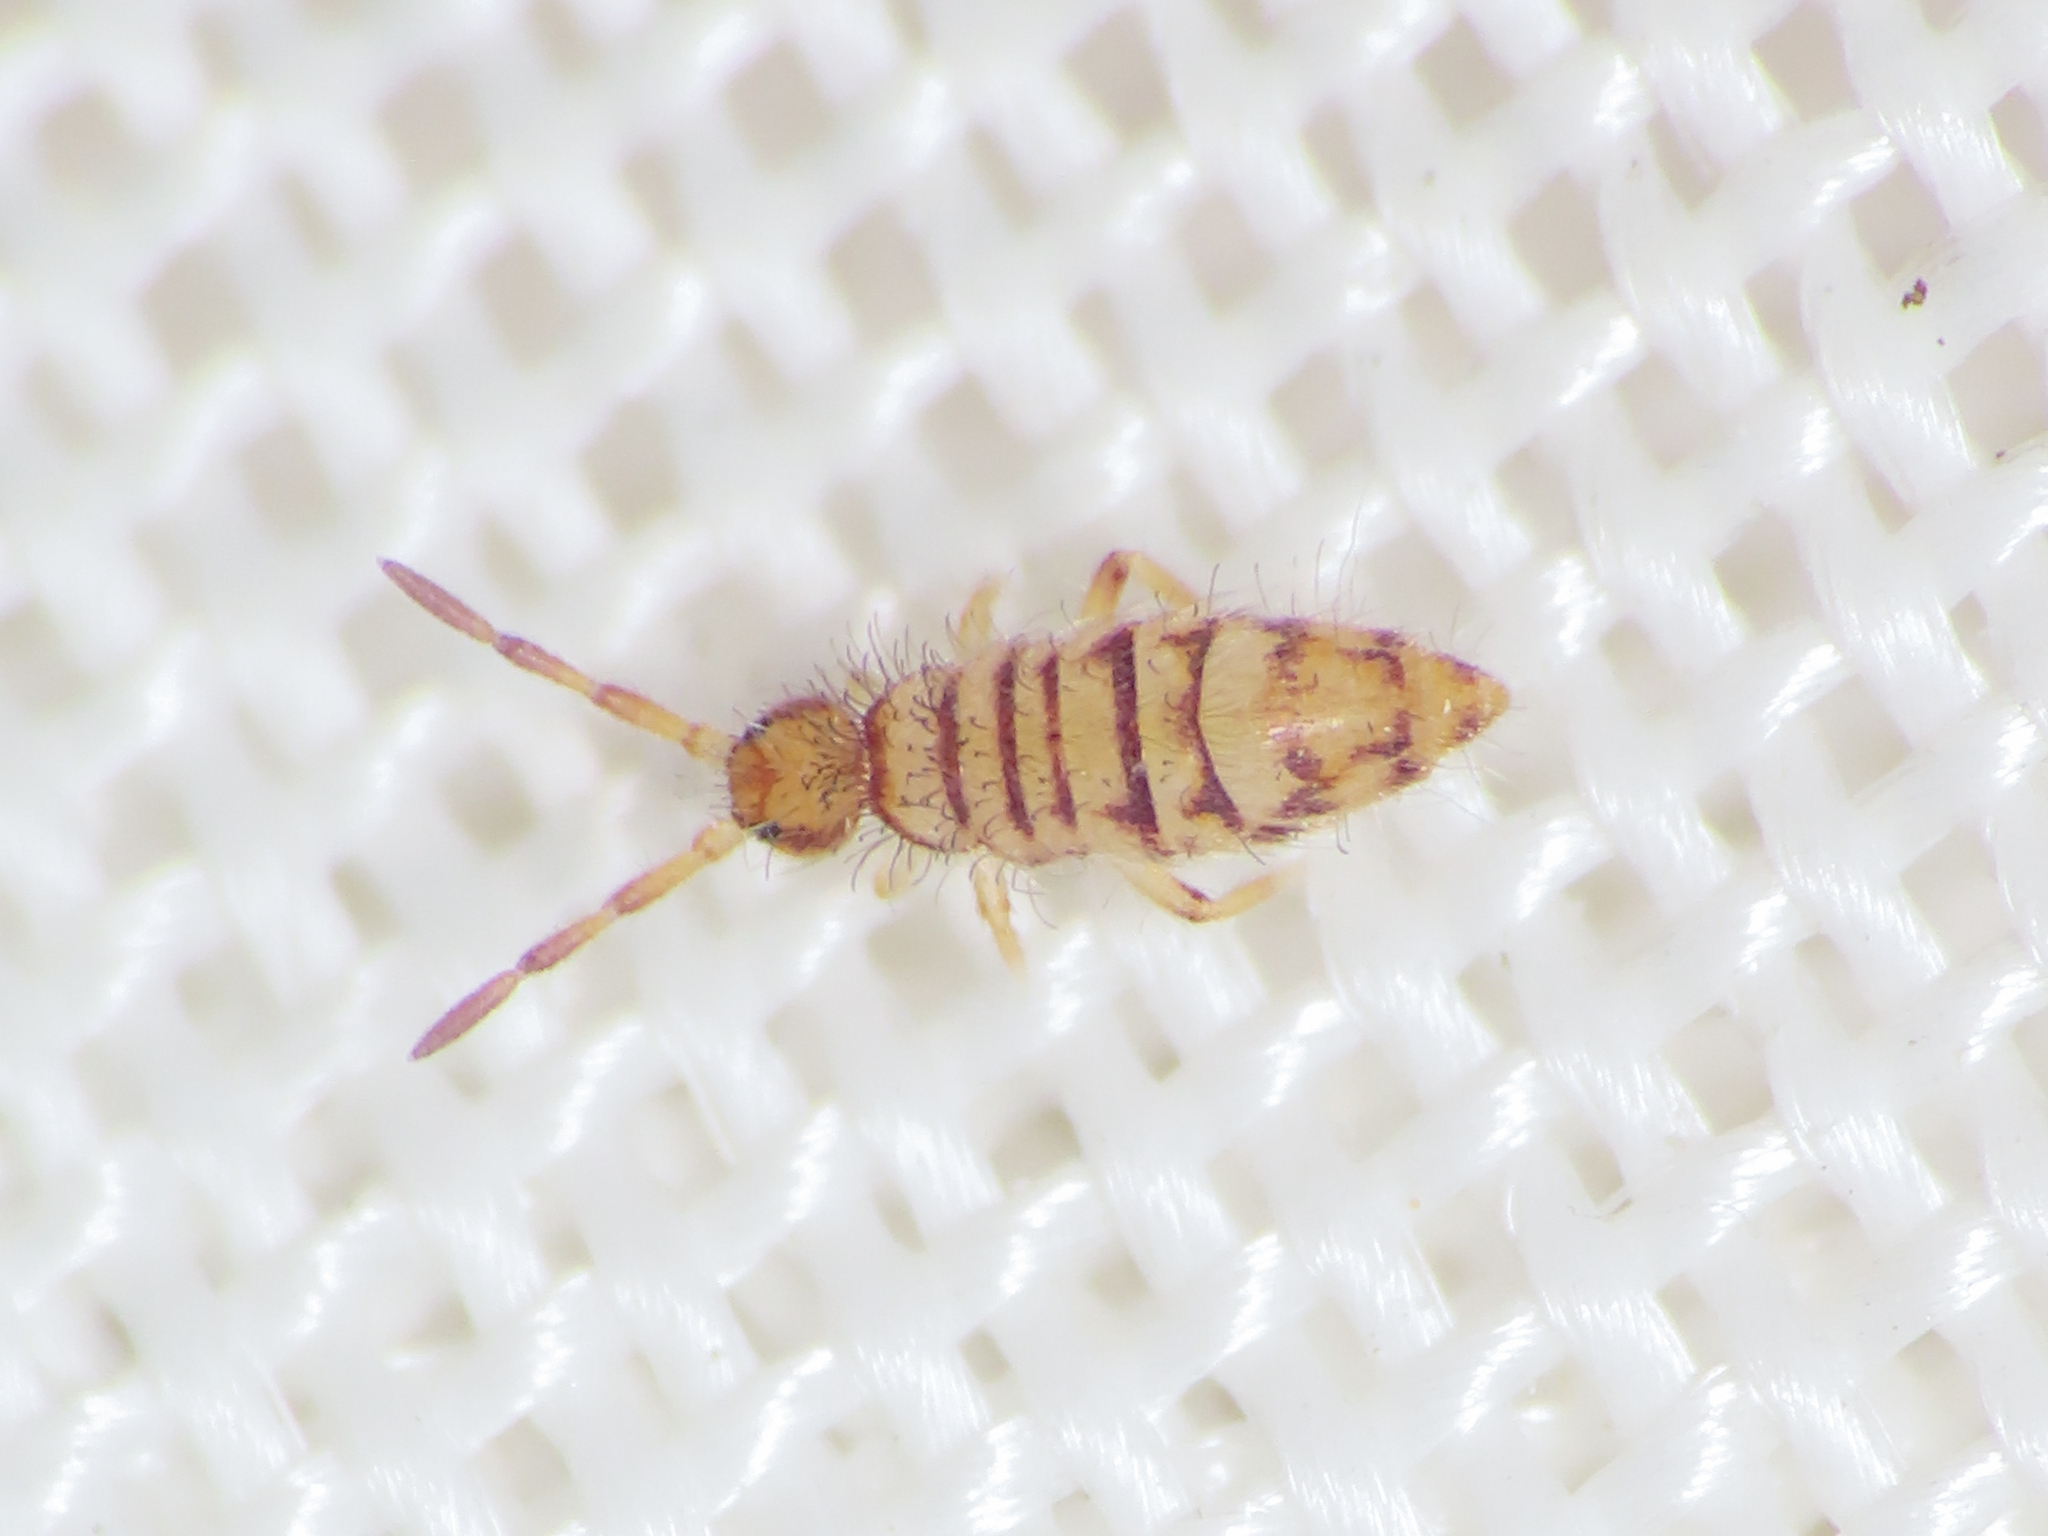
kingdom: Animalia
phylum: Arthropoda
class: Collembola
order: Entomobryomorpha
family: Entomobryidae
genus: Entomobrya
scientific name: Entomobrya nigrocincta
